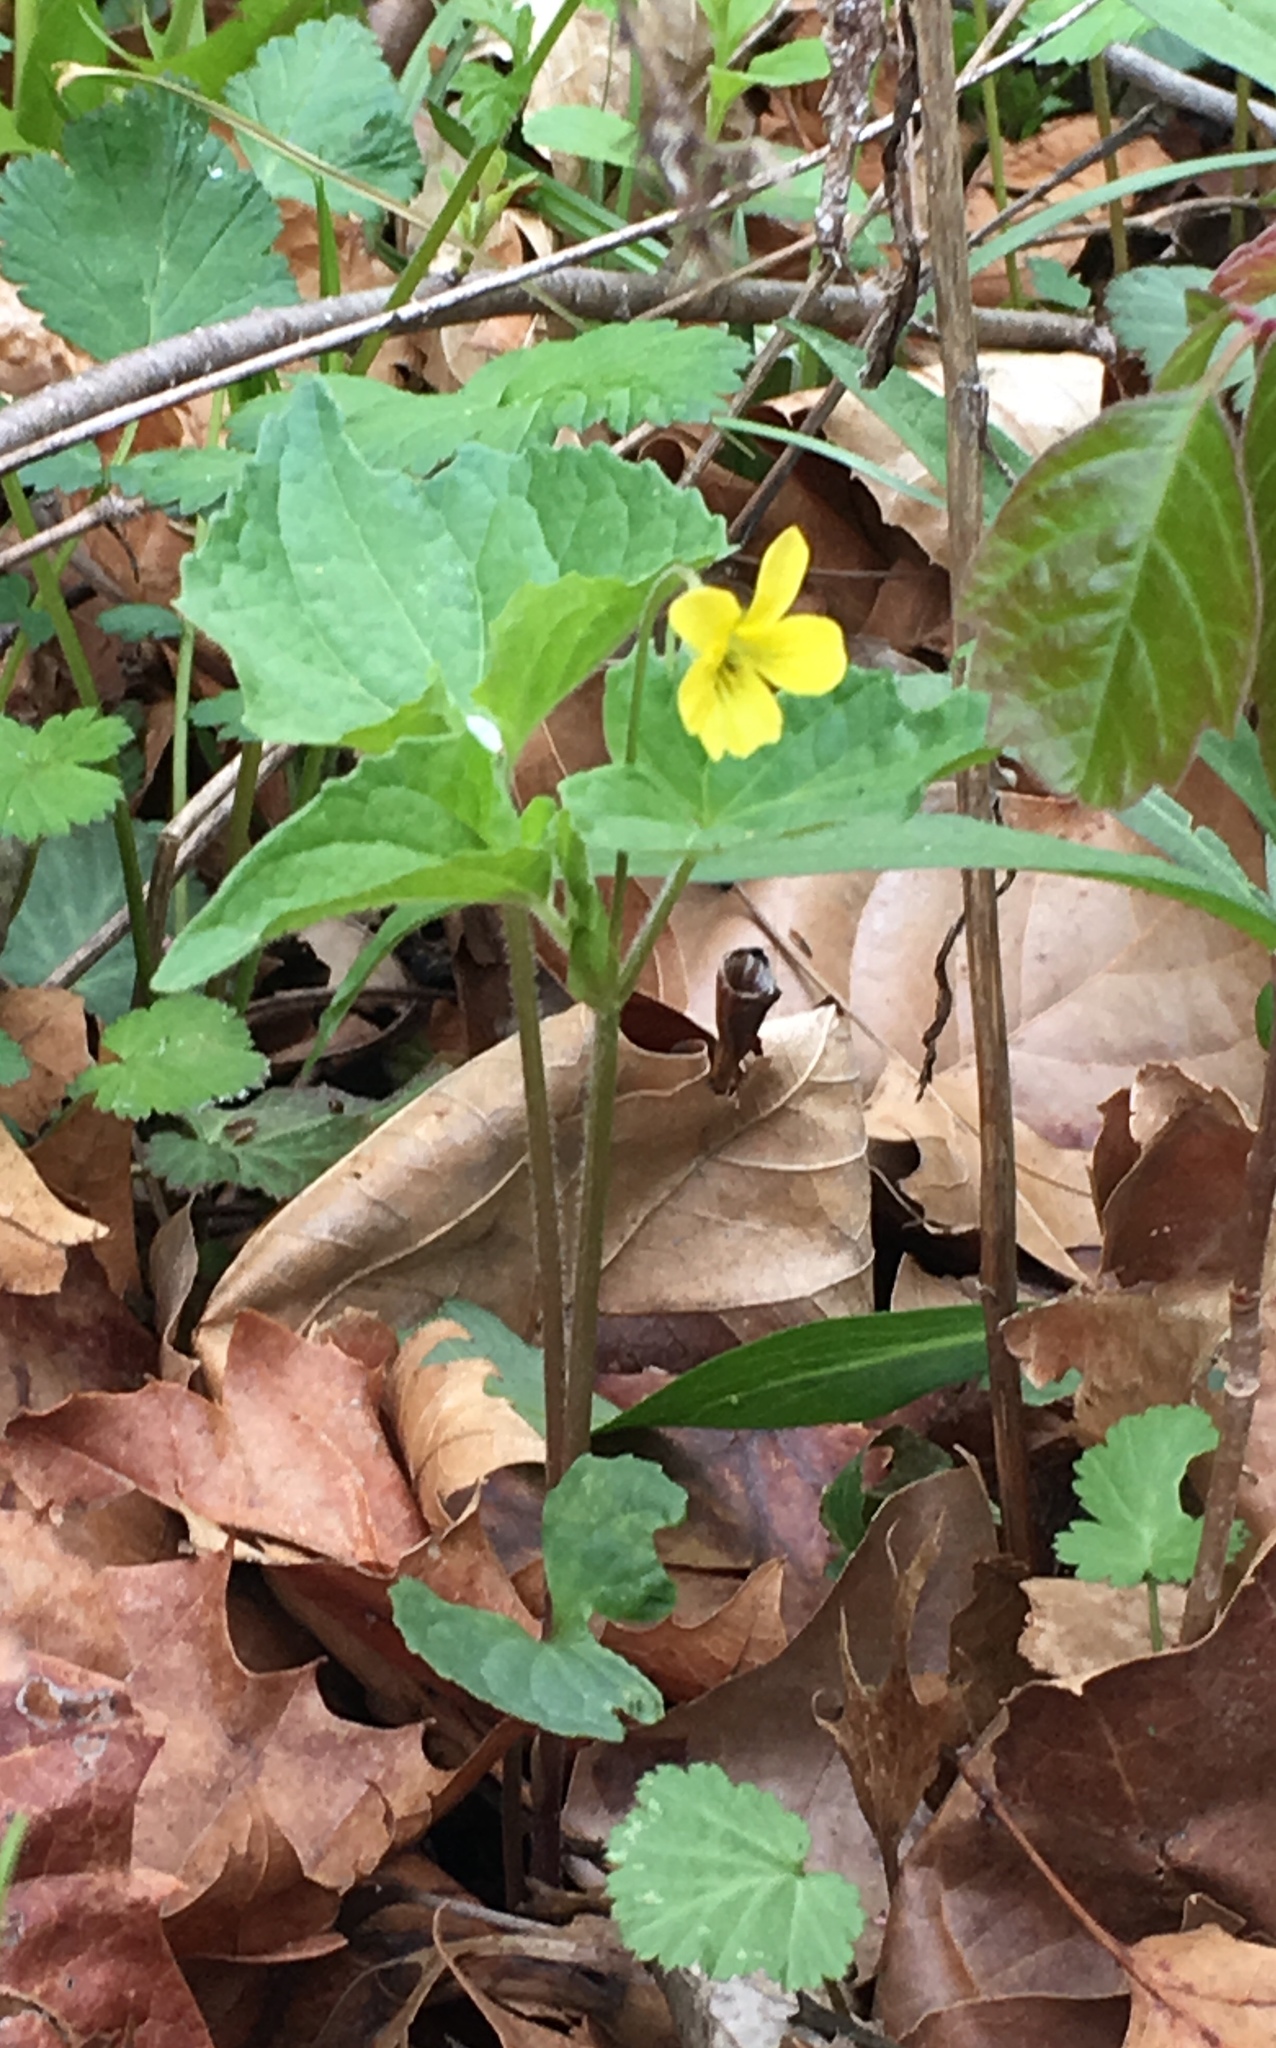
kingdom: Plantae
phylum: Tracheophyta
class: Magnoliopsida
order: Malpighiales
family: Violaceae
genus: Viola
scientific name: Viola eriocarpa
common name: Smooth yellow violet
